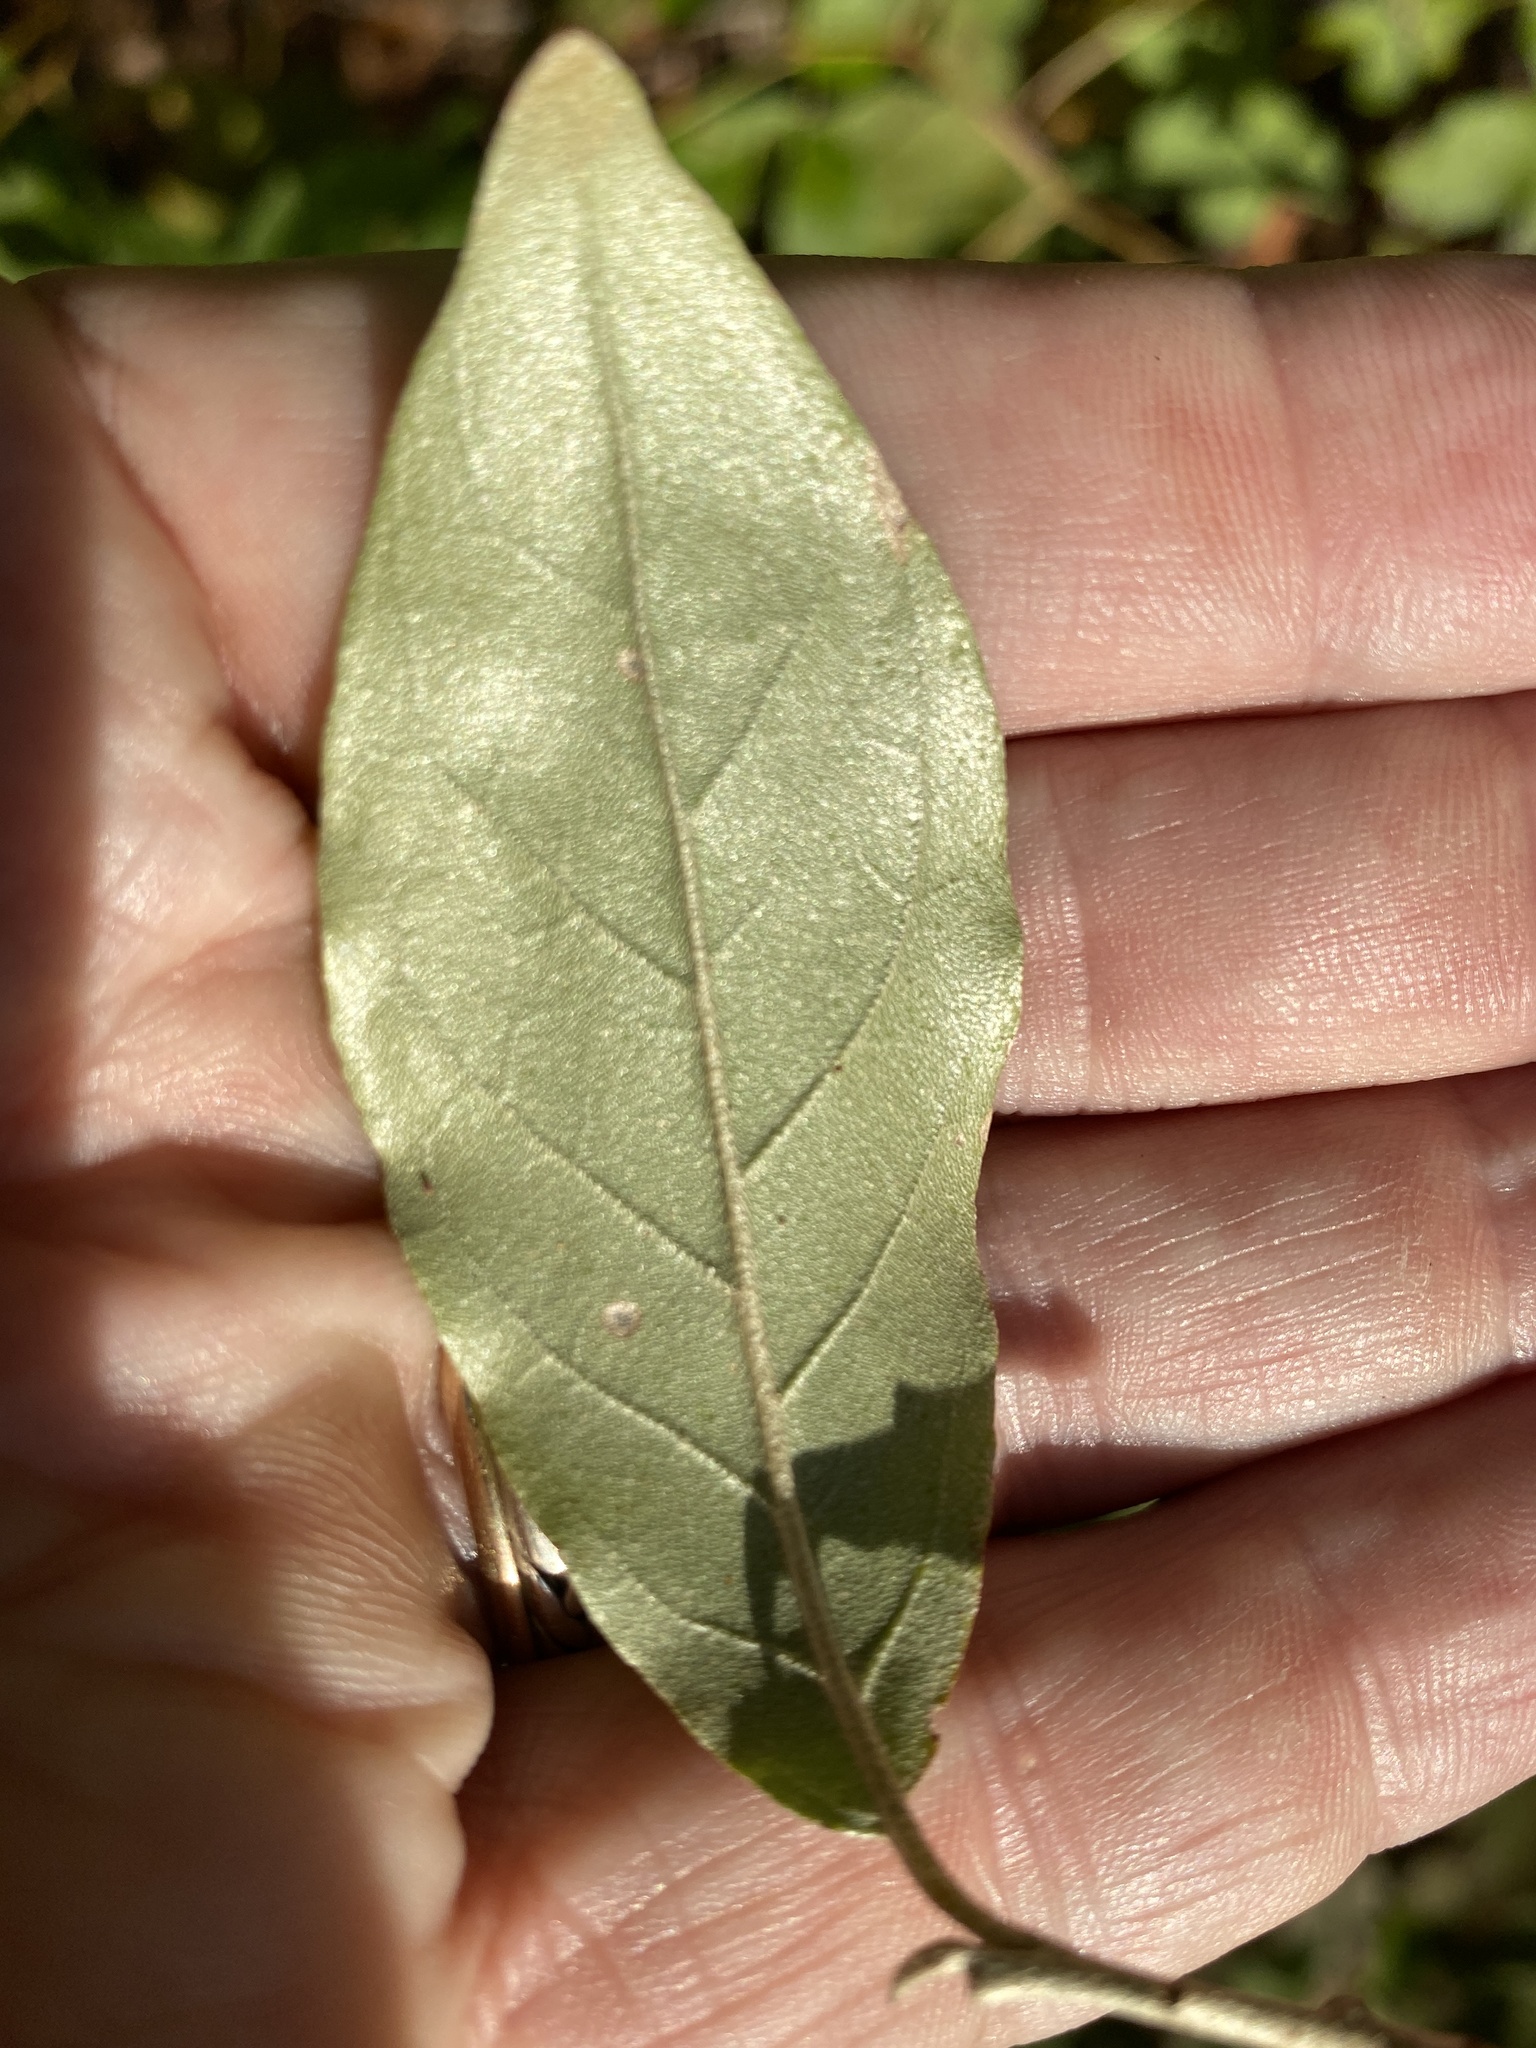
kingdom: Plantae
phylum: Tracheophyta
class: Magnoliopsida
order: Rosales
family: Elaeagnaceae
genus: Elaeagnus
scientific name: Elaeagnus umbellata
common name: Autumn olive
